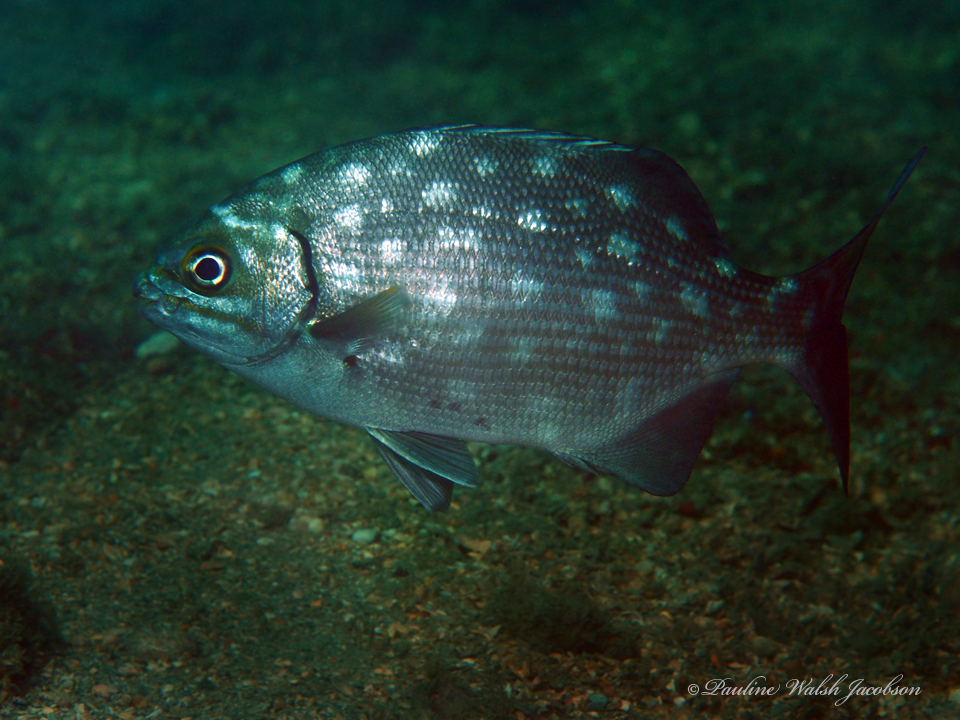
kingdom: Animalia
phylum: Chordata
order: Perciformes
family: Kyphosidae
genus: Kyphosus
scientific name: Kyphosus sectatrix
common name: Bermuda chub
